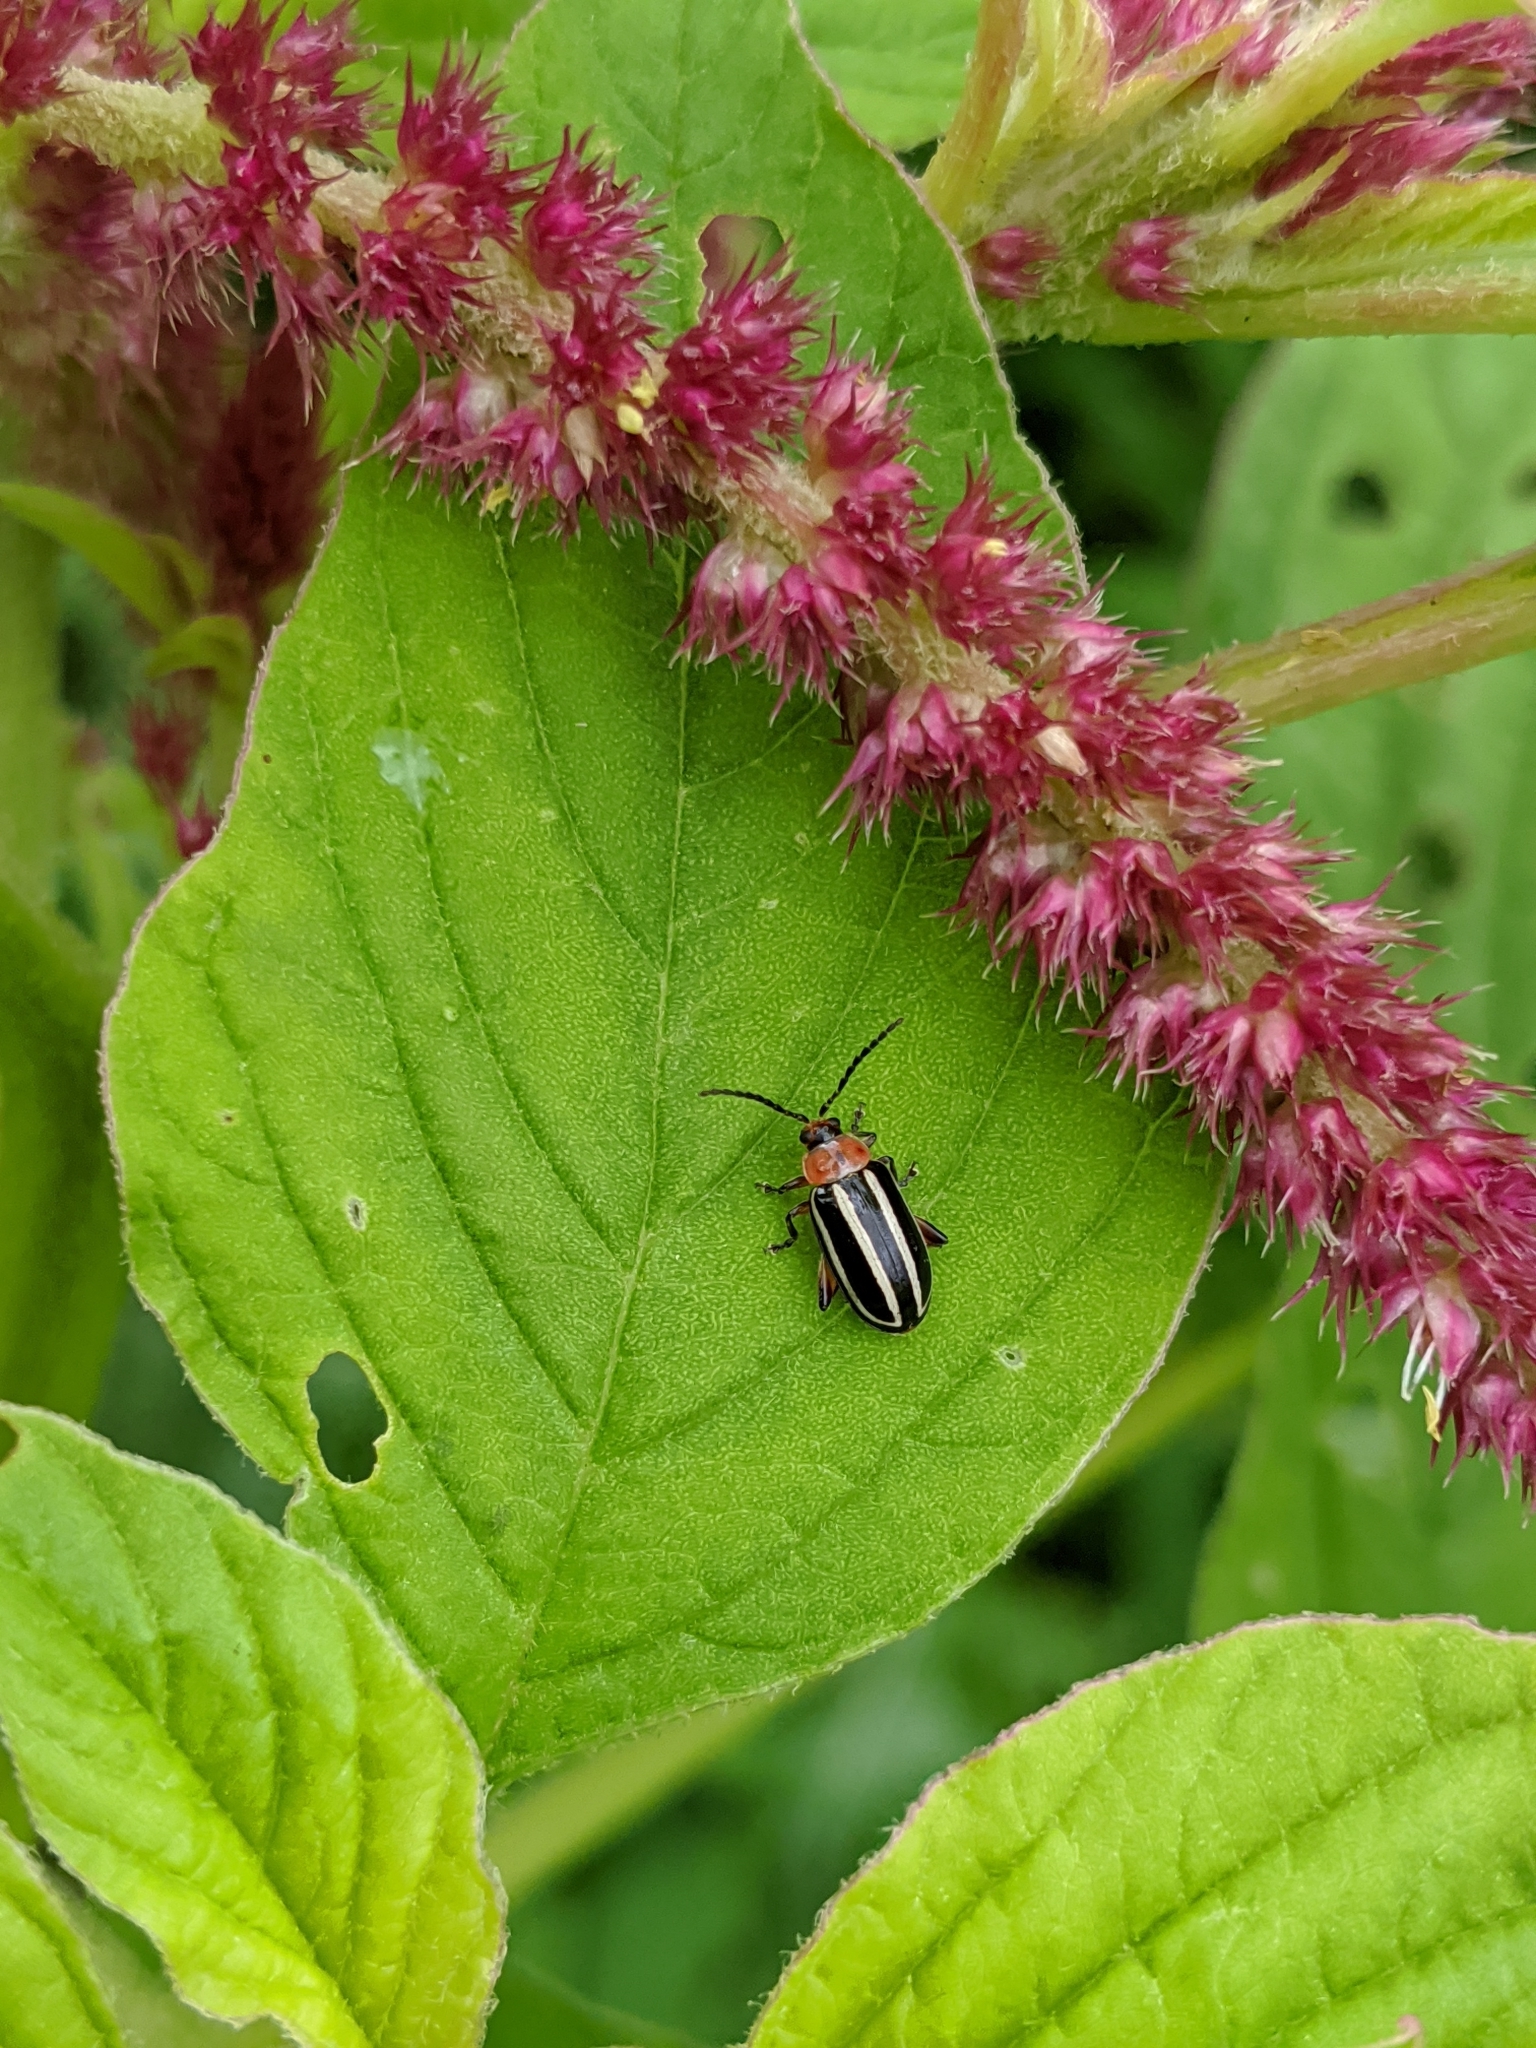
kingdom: Animalia
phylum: Arthropoda
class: Insecta
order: Coleoptera
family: Chrysomelidae
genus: Disonycha
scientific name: Disonycha glabrata
